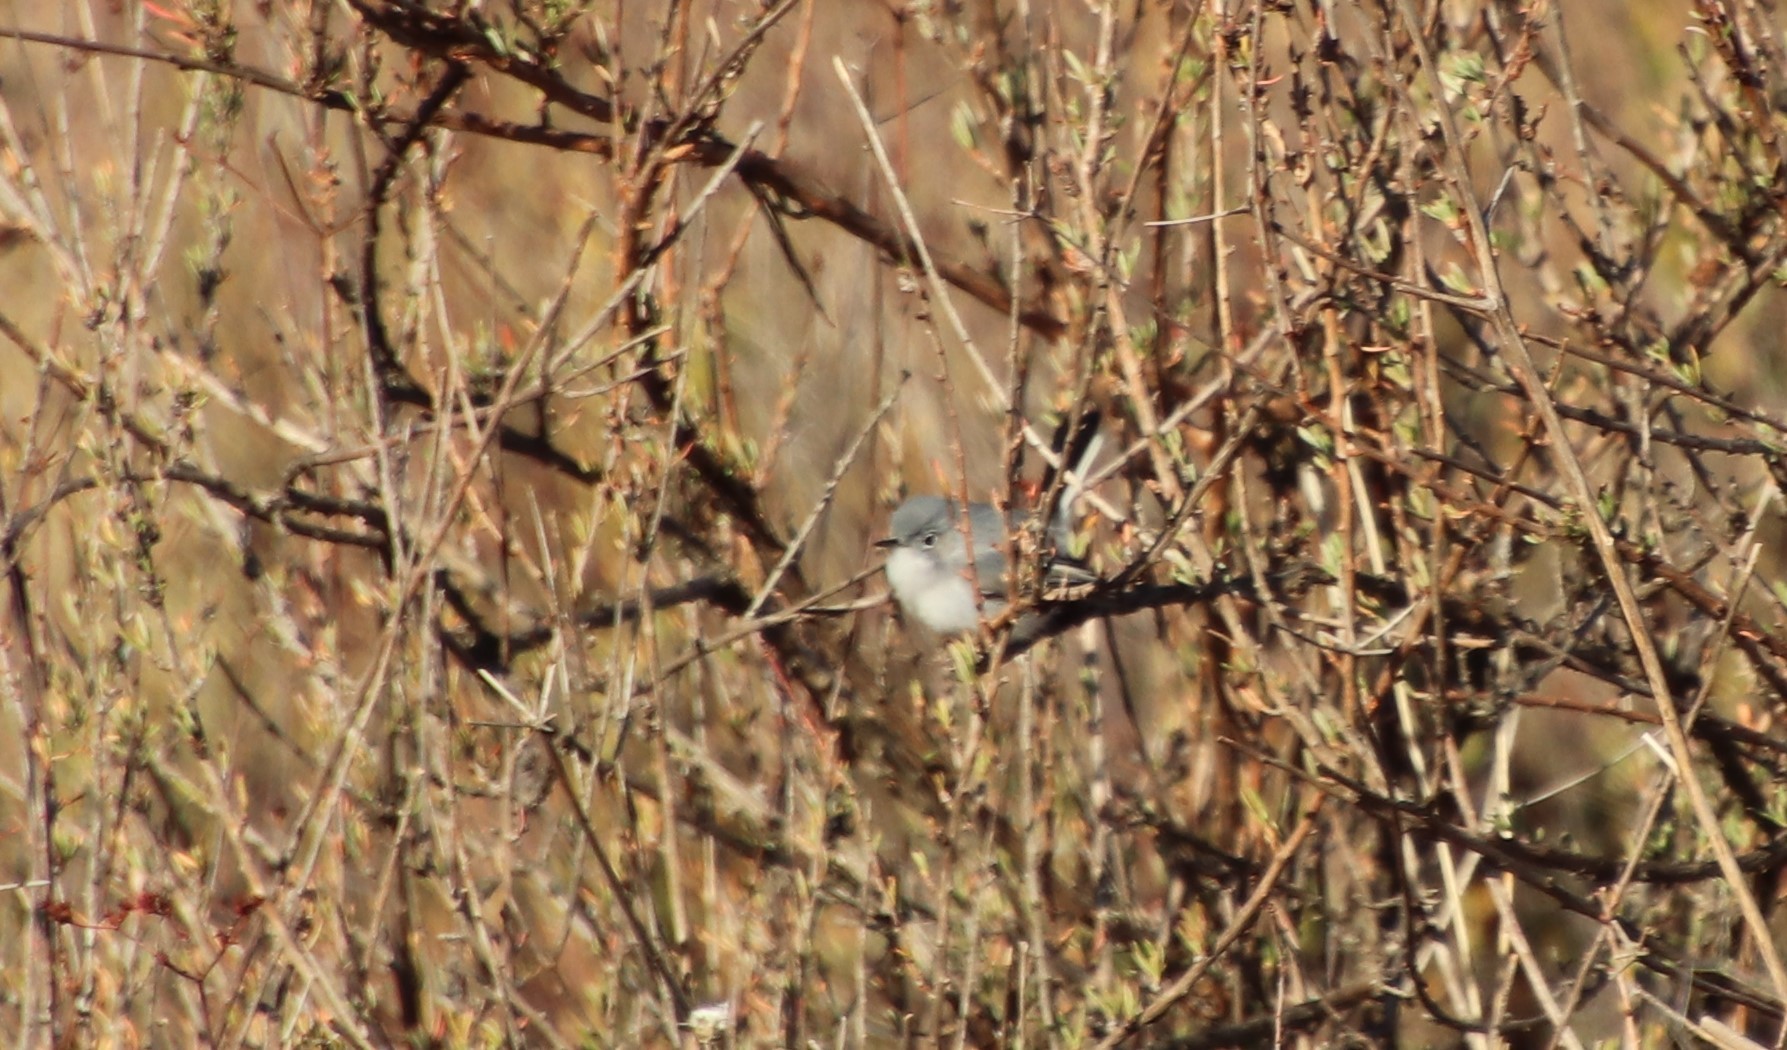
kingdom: Animalia
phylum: Chordata
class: Aves
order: Passeriformes
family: Polioptilidae
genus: Polioptila
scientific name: Polioptila caerulea
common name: Blue-gray gnatcatcher
